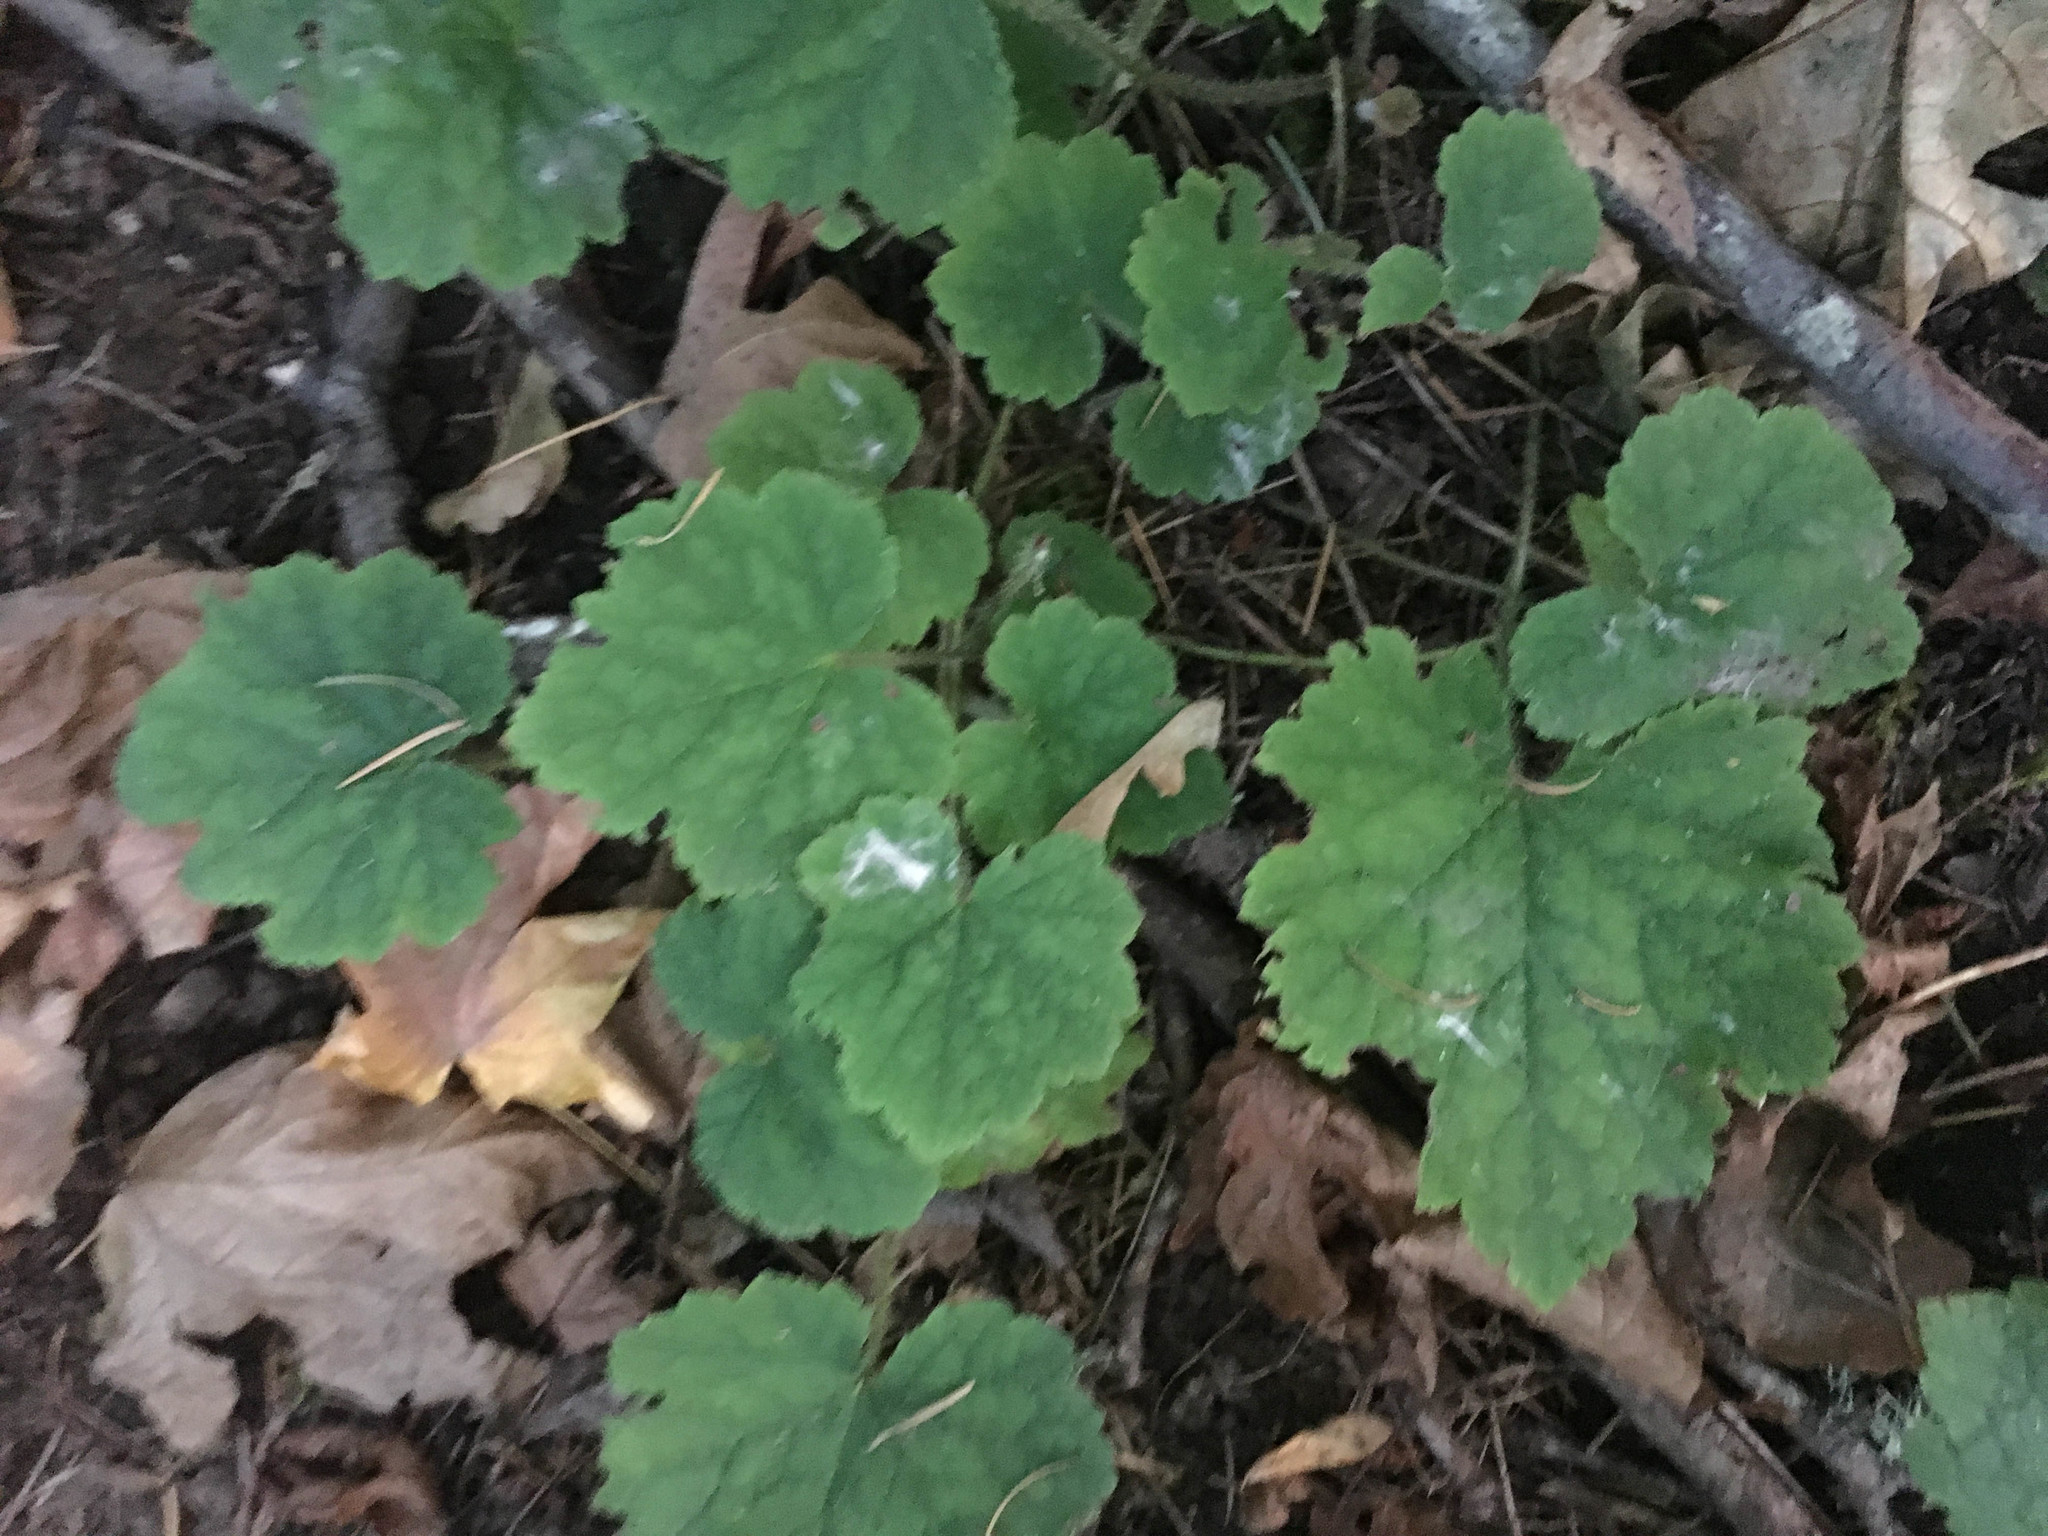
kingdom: Plantae
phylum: Tracheophyta
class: Magnoliopsida
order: Saxifragales
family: Saxifragaceae
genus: Tellima
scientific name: Tellima grandiflora
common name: Fringecups
